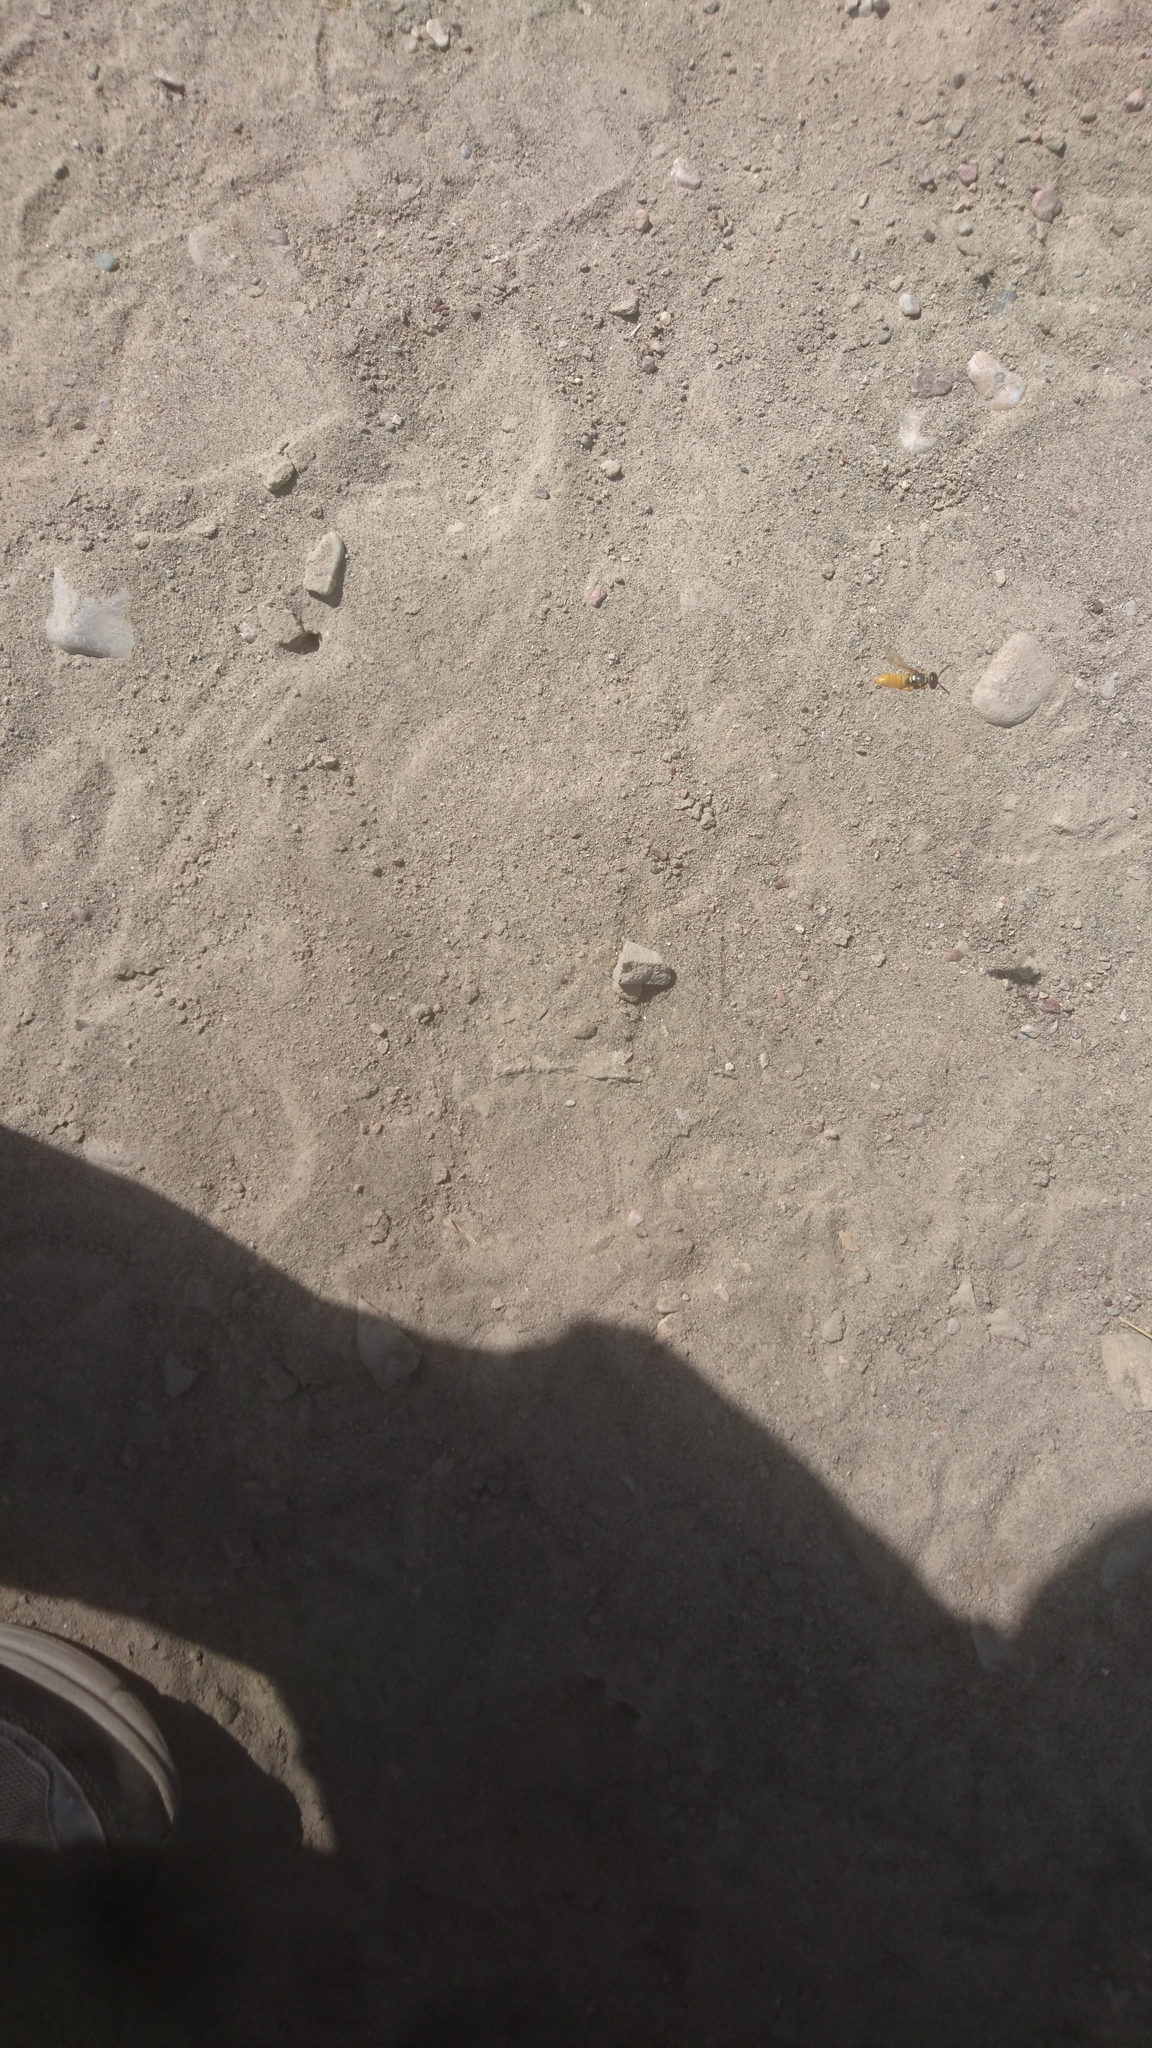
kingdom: Animalia
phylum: Arthropoda
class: Insecta
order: Hymenoptera
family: Crabronidae
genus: Philanthus
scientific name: Philanthus triangulum
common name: Bee wolf
